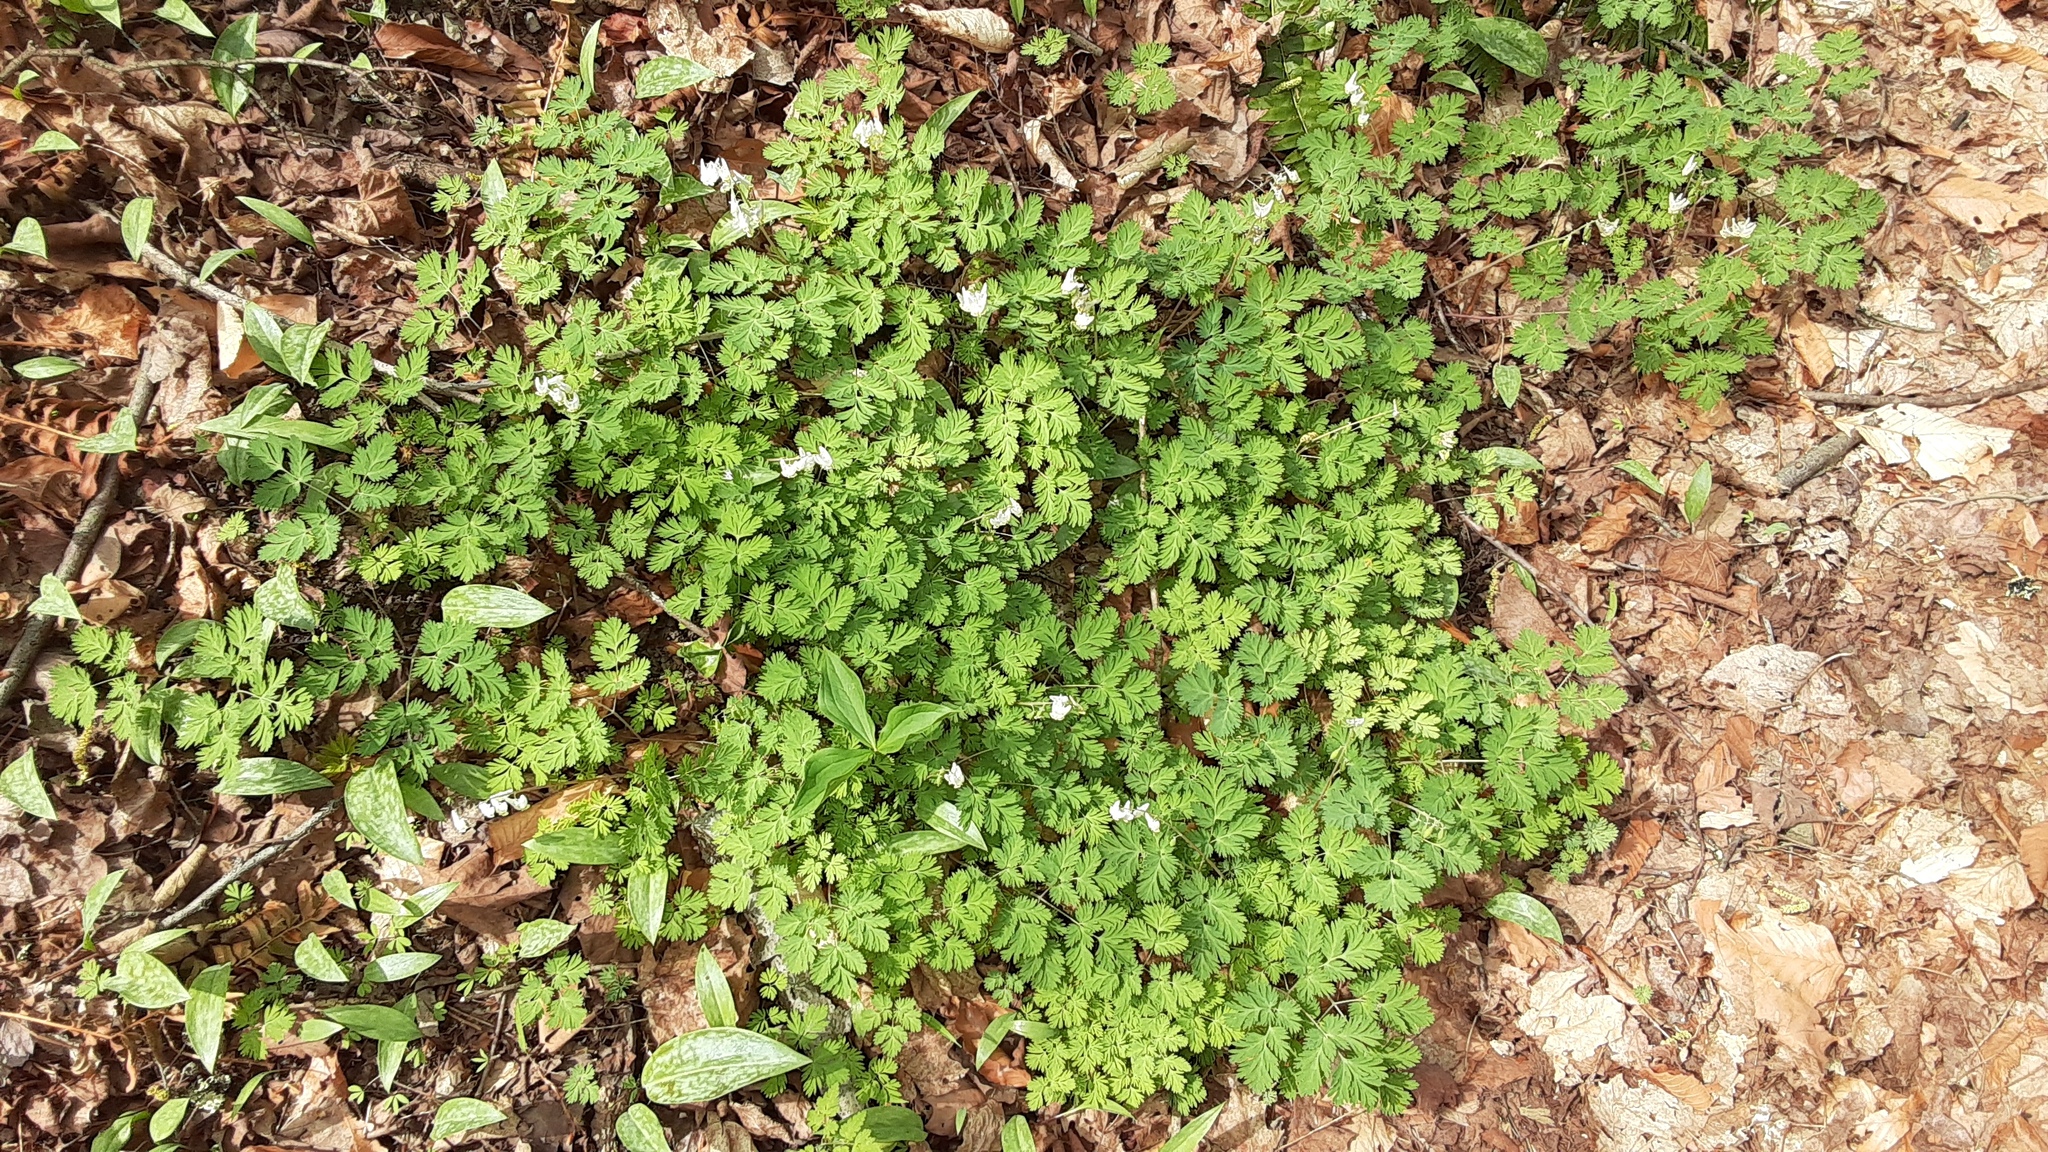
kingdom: Plantae
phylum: Tracheophyta
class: Magnoliopsida
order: Ranunculales
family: Papaveraceae
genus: Dicentra
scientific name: Dicentra cucullaria
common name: Dutchman's breeches
